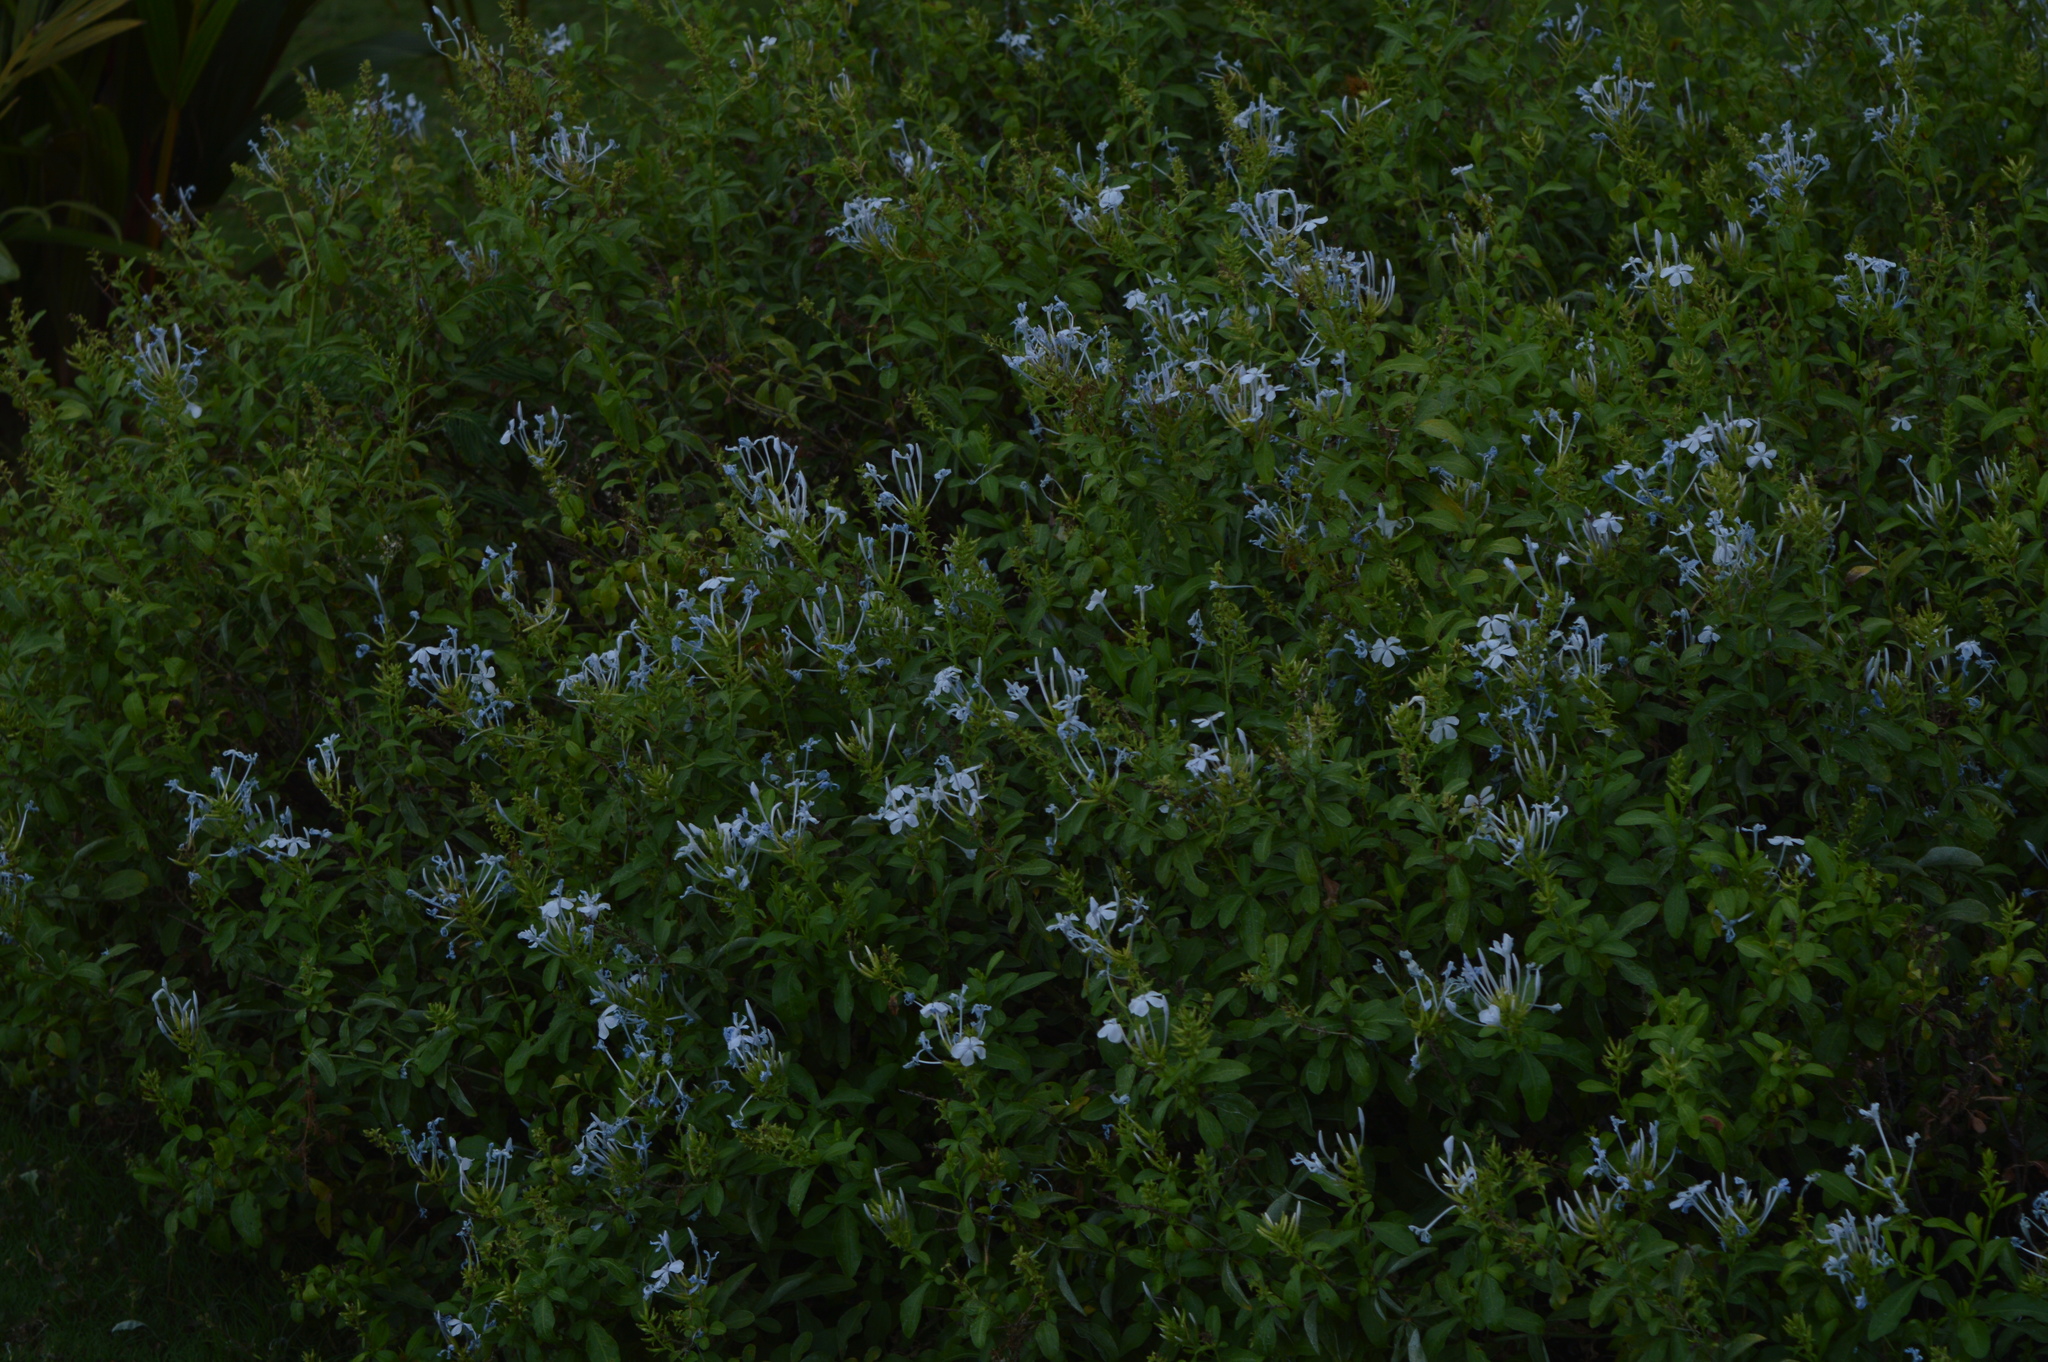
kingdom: Plantae
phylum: Tracheophyta
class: Magnoliopsida
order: Caryophyllales
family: Plumbaginaceae
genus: Plumbago
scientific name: Plumbago auriculata
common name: Cape leadwort
